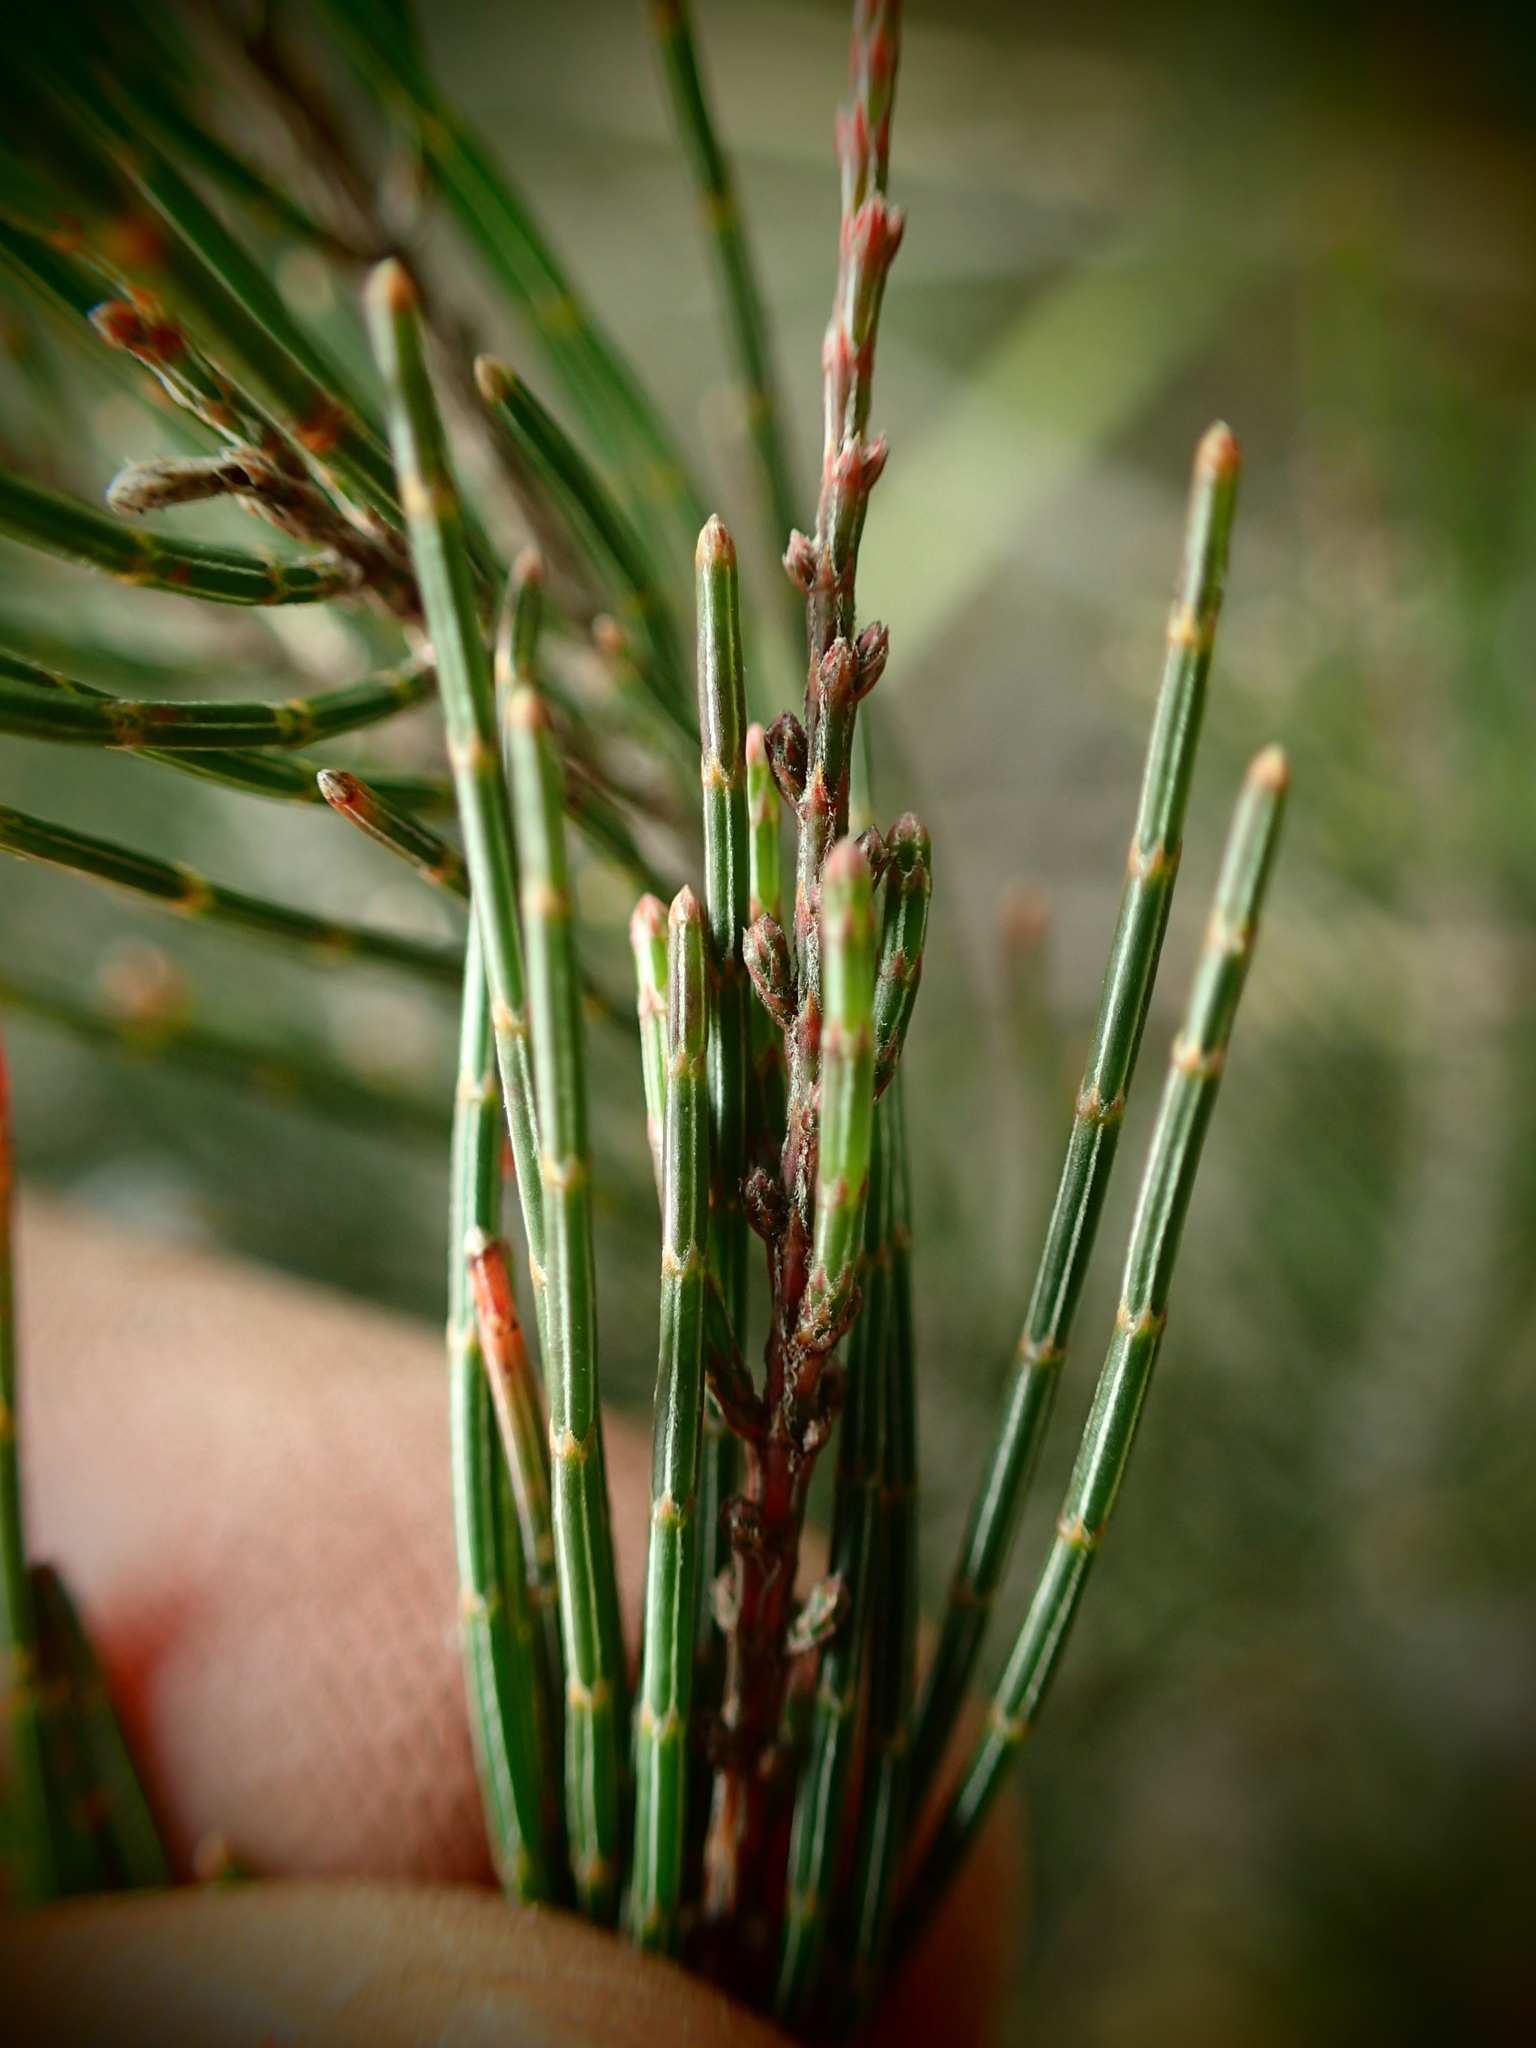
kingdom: Plantae
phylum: Tracheophyta
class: Magnoliopsida
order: Fagales
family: Casuarinaceae
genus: Allocasuarina
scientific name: Allocasuarina nana
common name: Stunted she-oak
